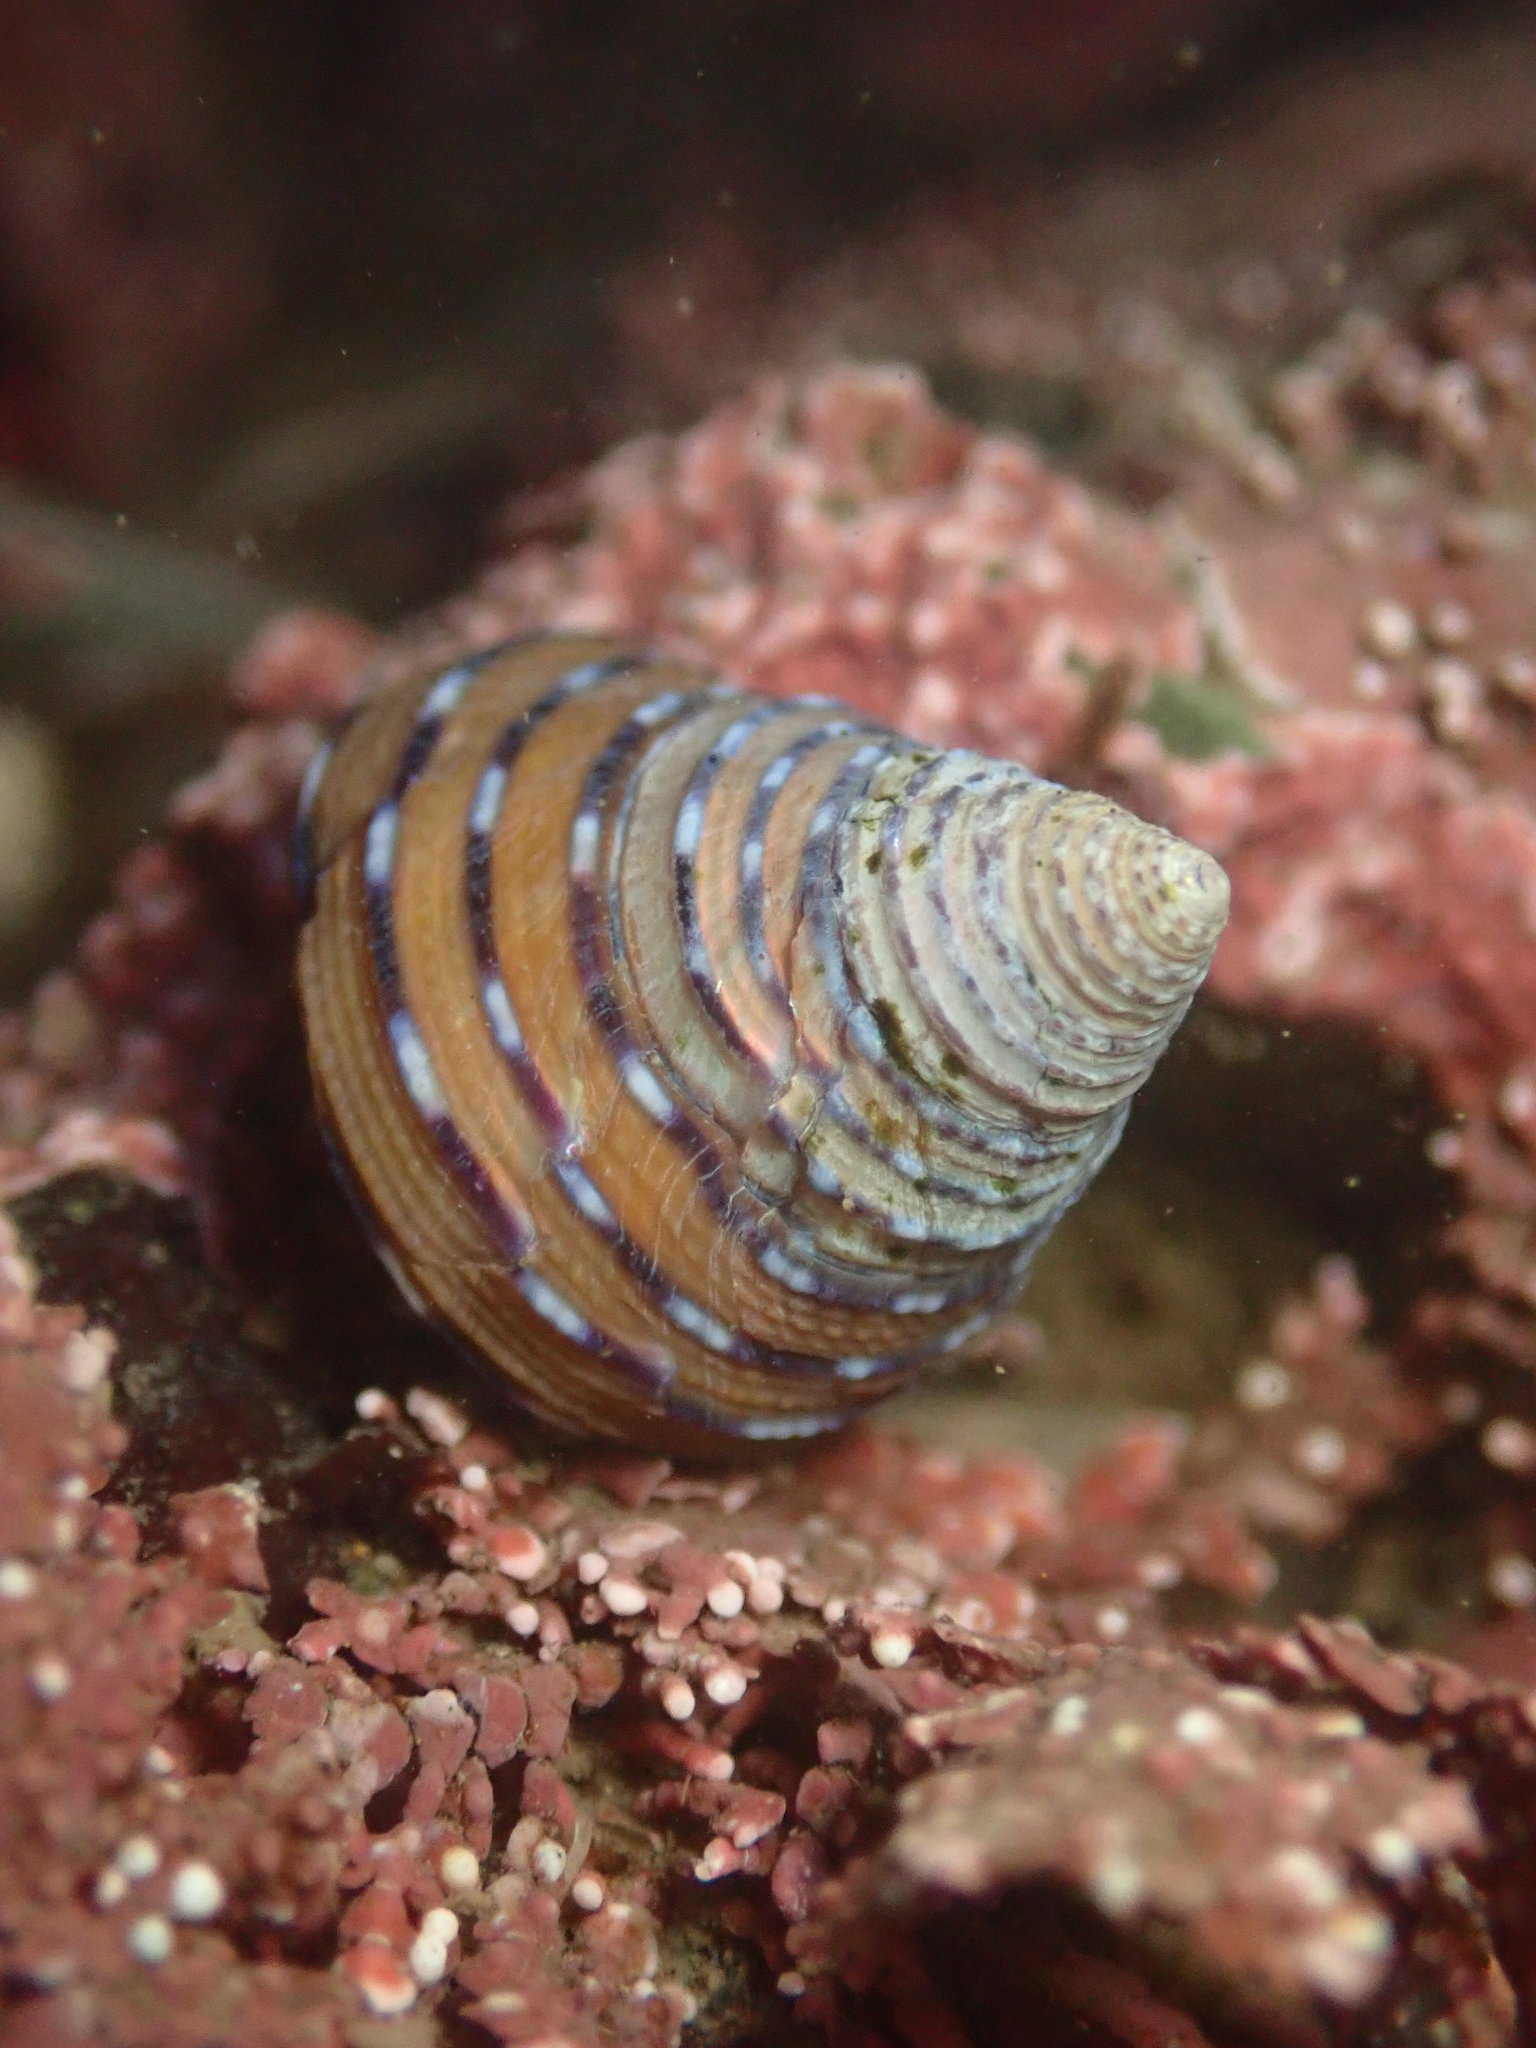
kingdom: Animalia
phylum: Mollusca
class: Gastropoda
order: Trochida
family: Calliostomatidae
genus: Calliostoma
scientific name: Calliostoma tricolor
